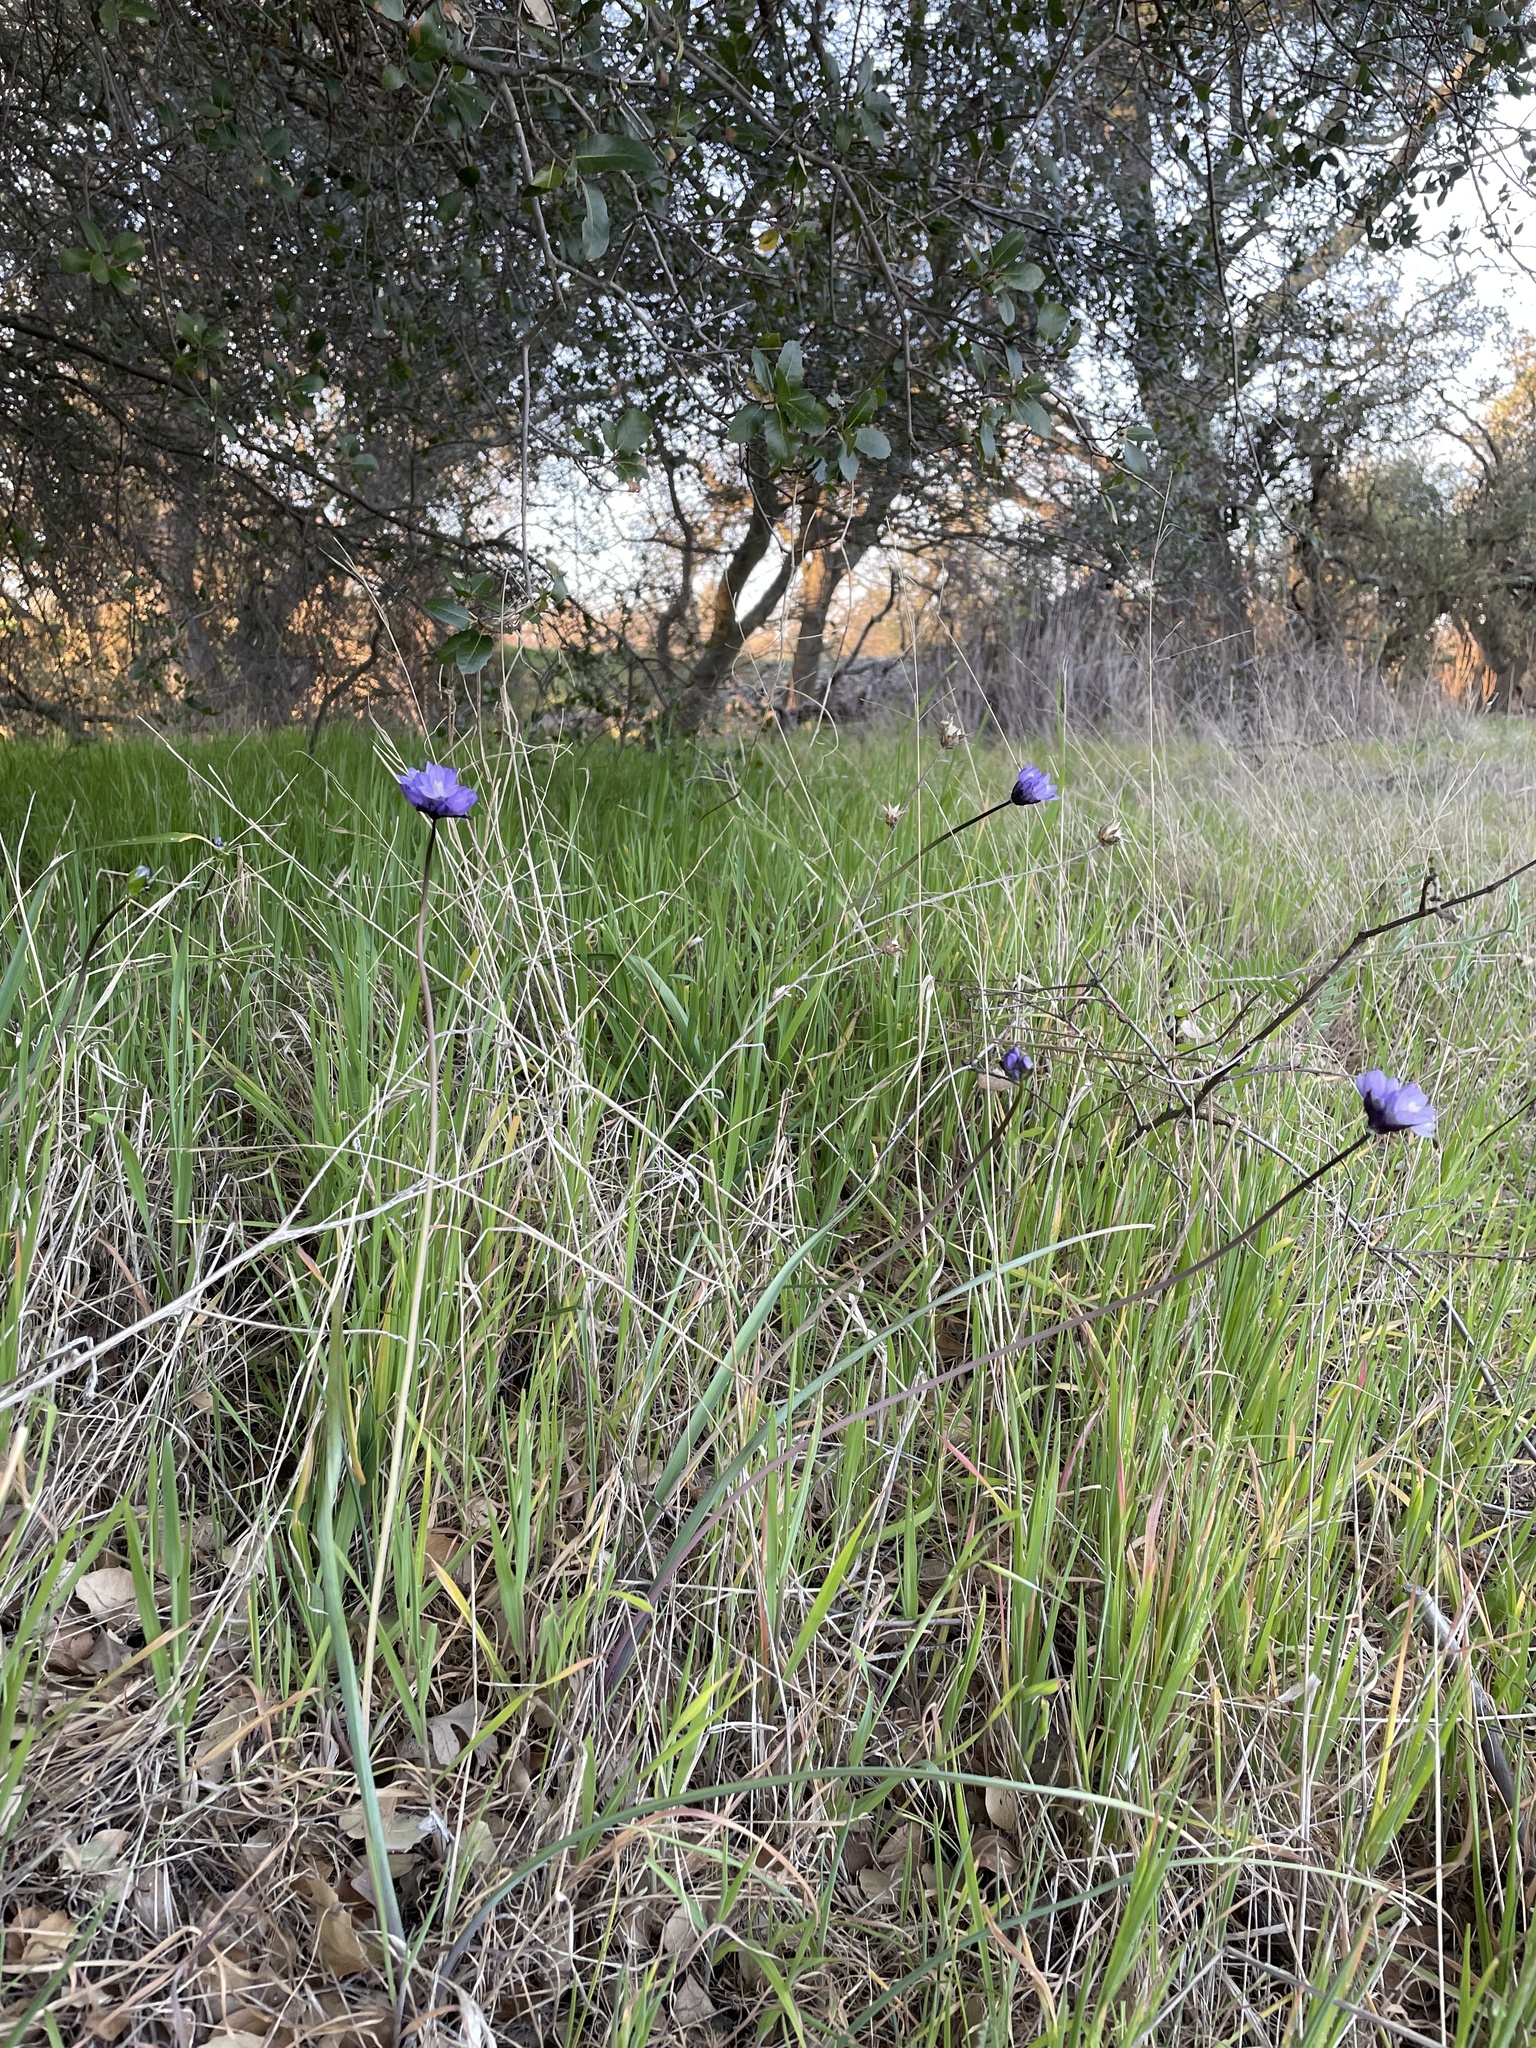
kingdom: Plantae
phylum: Tracheophyta
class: Liliopsida
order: Asparagales
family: Asparagaceae
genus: Dipterostemon
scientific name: Dipterostemon capitatus
